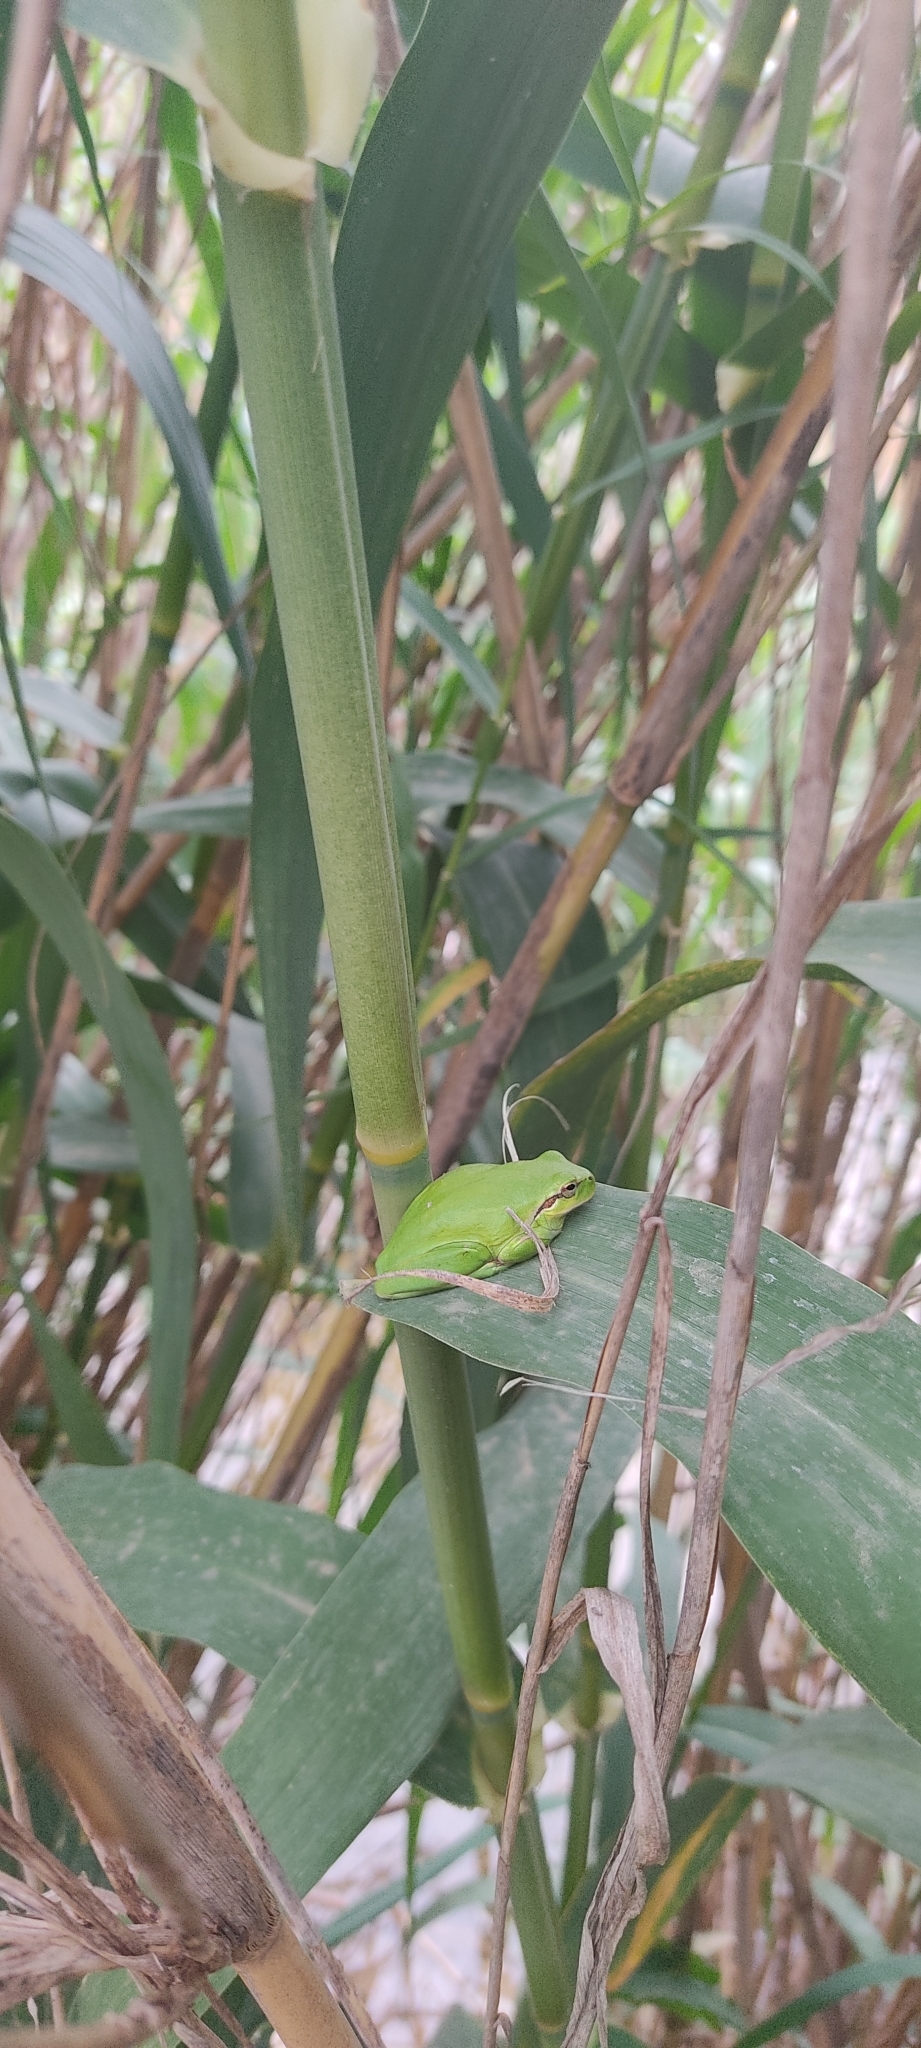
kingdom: Animalia
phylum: Chordata
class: Amphibia
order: Anura
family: Hylidae
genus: Hyla
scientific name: Hyla meridionalis
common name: Stripeless tree frog
